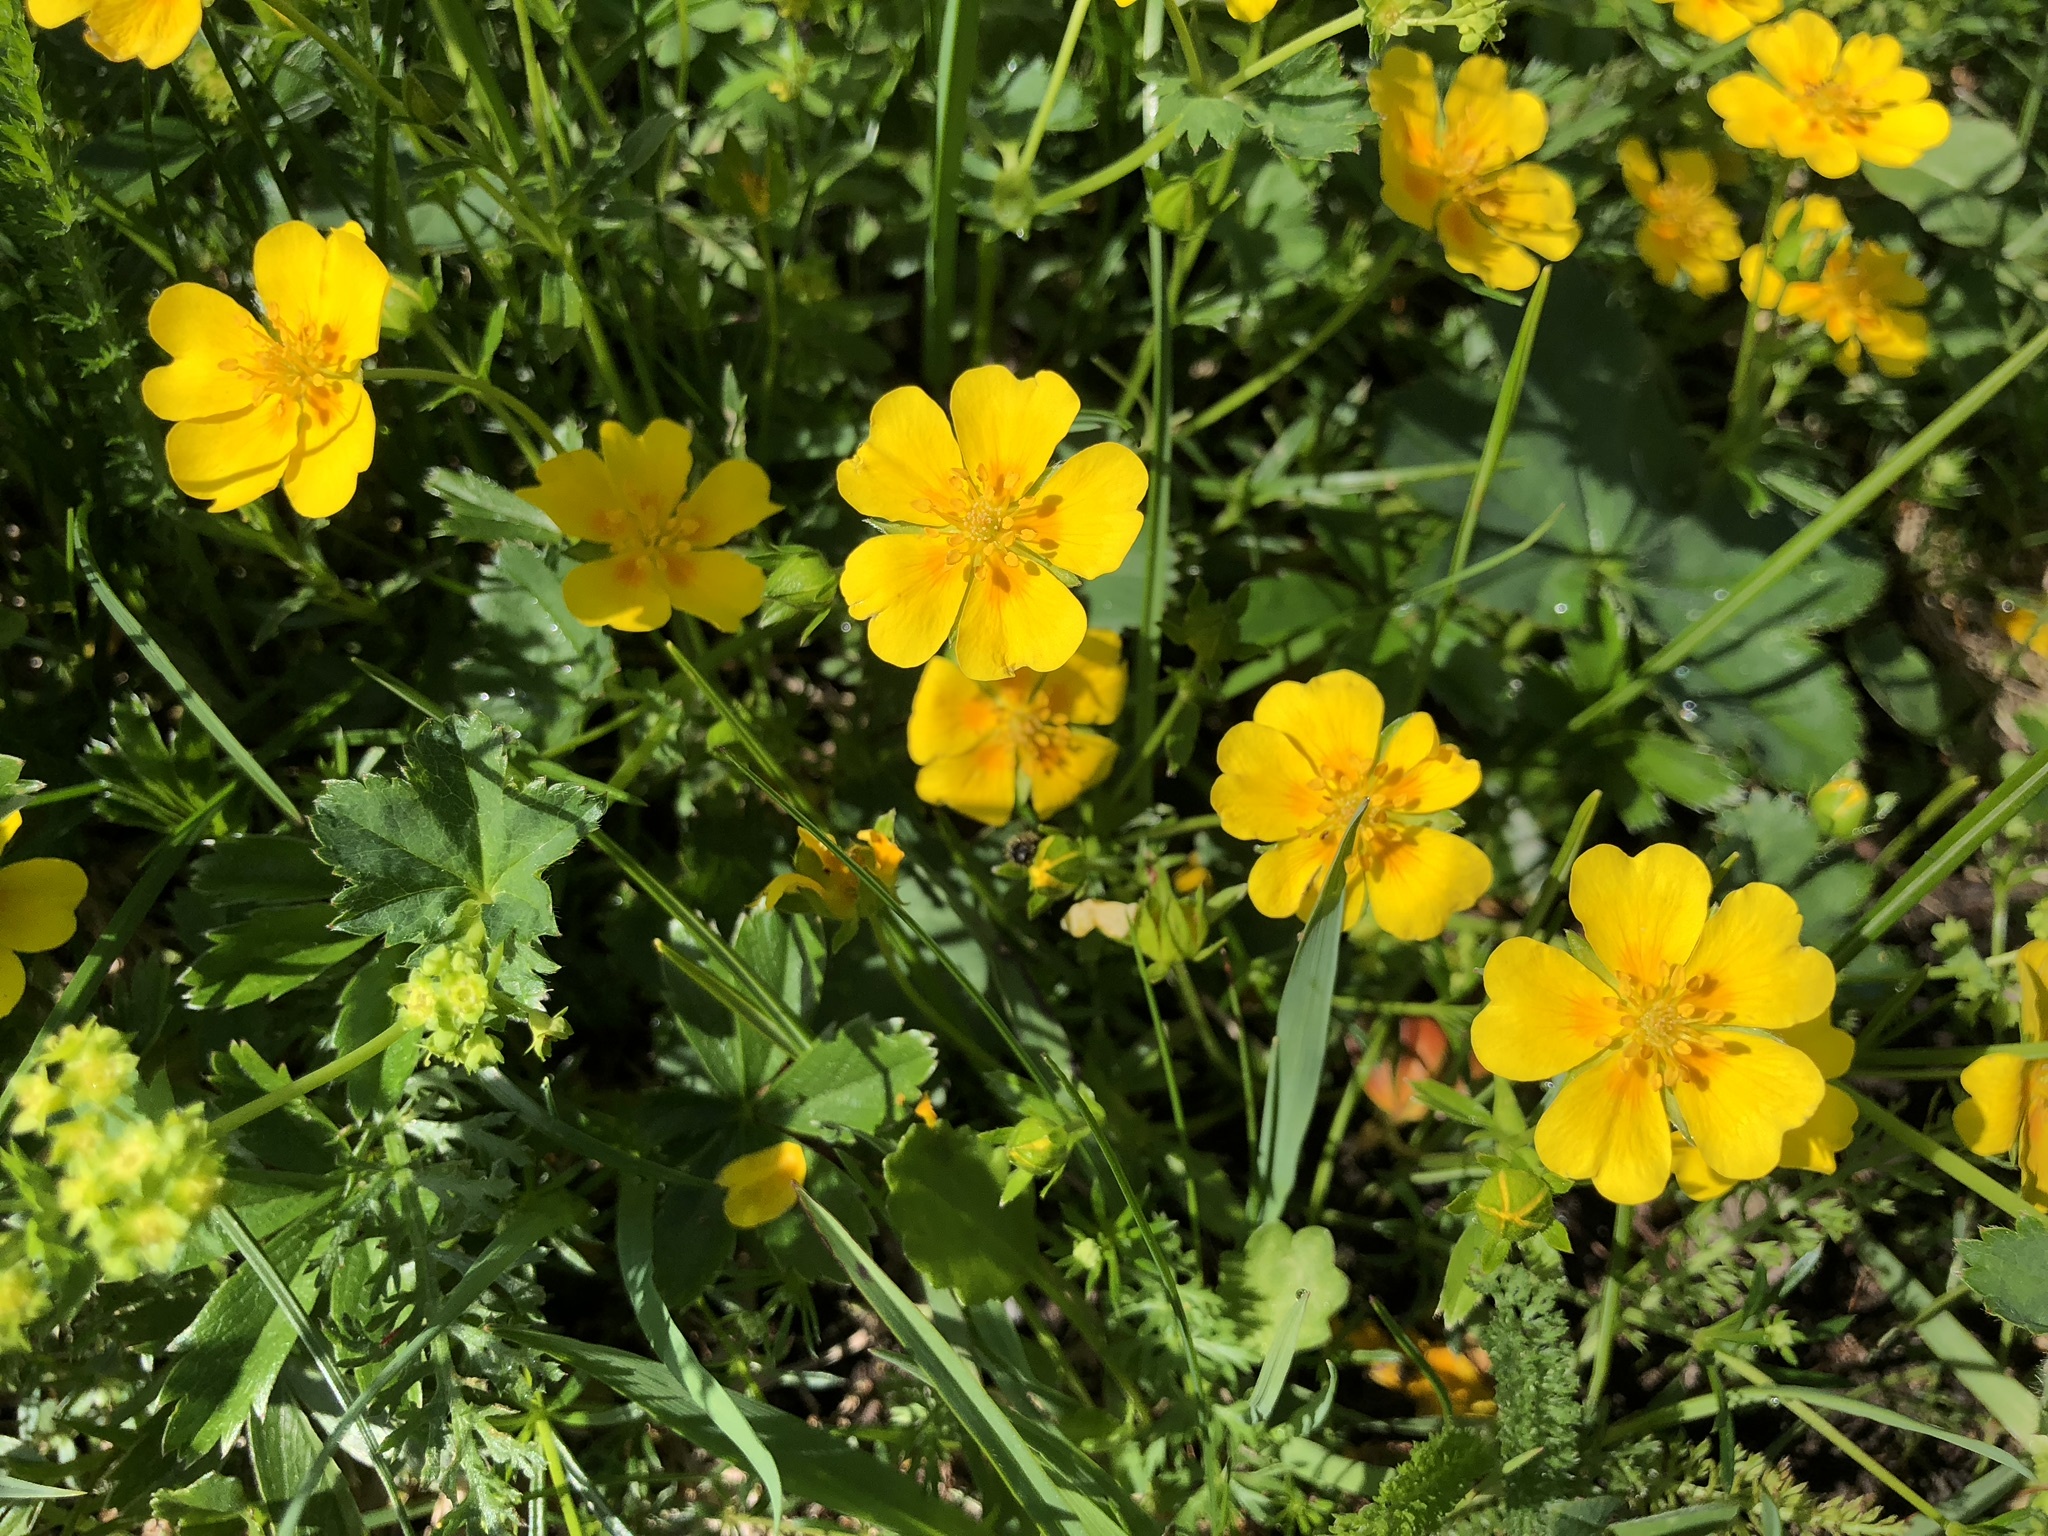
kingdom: Plantae
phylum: Tracheophyta
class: Magnoliopsida
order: Rosales
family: Rosaceae
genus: Potentilla
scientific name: Potentilla aurea
